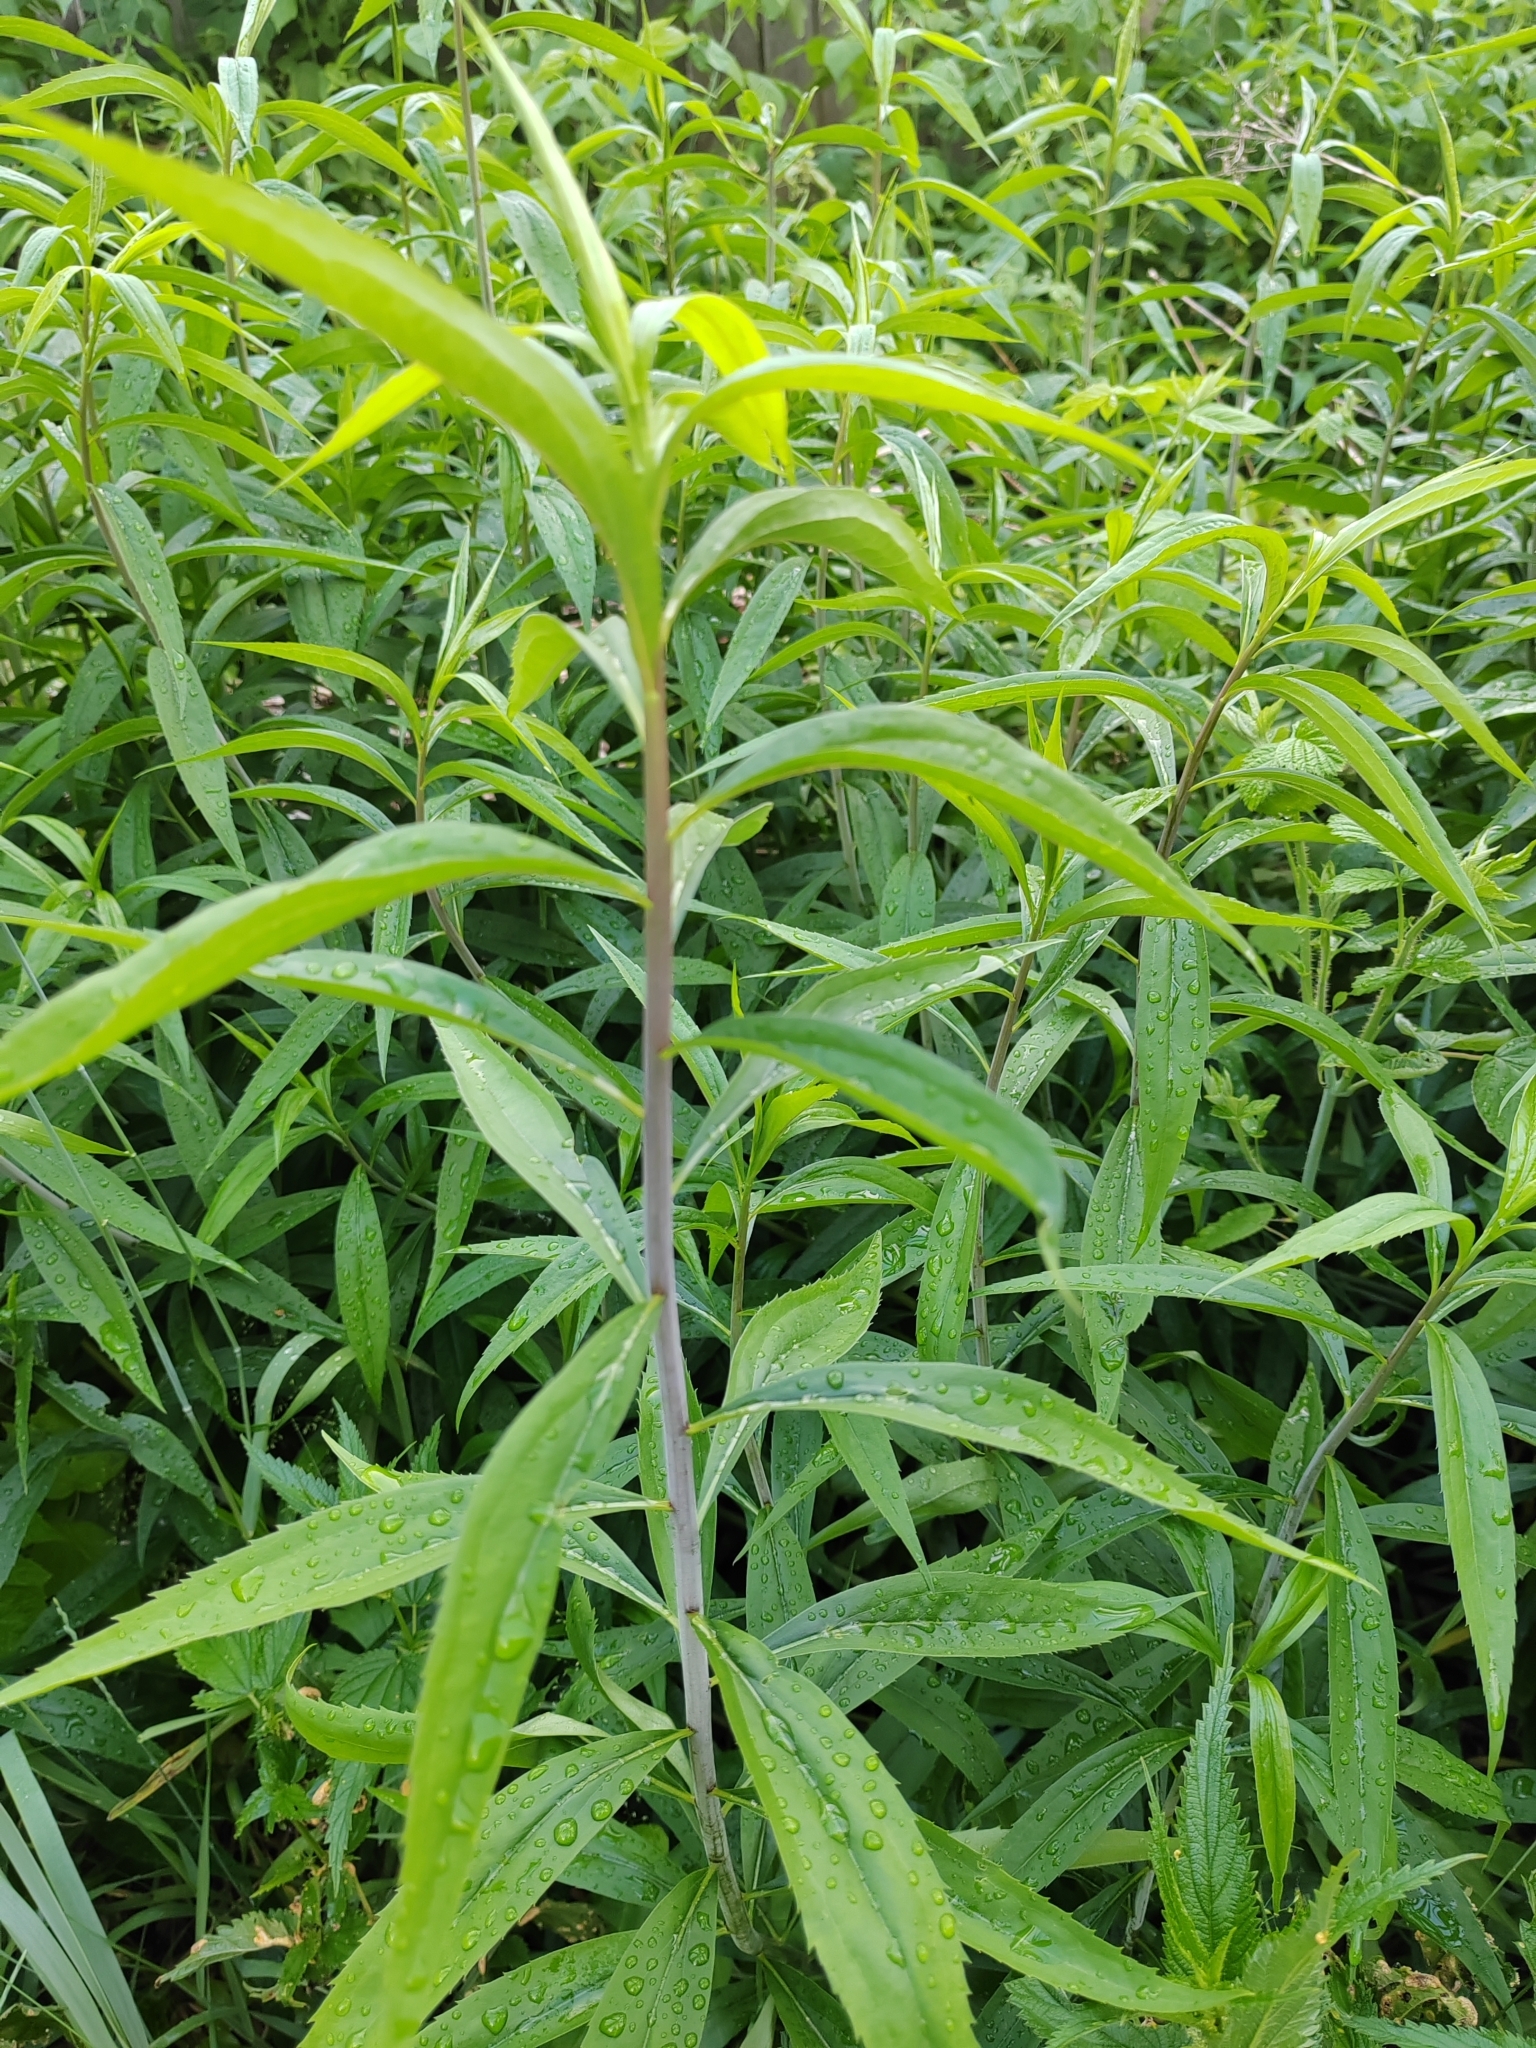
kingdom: Plantae
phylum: Tracheophyta
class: Magnoliopsida
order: Asterales
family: Asteraceae
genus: Solidago
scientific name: Solidago gigantea
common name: Giant goldenrod
